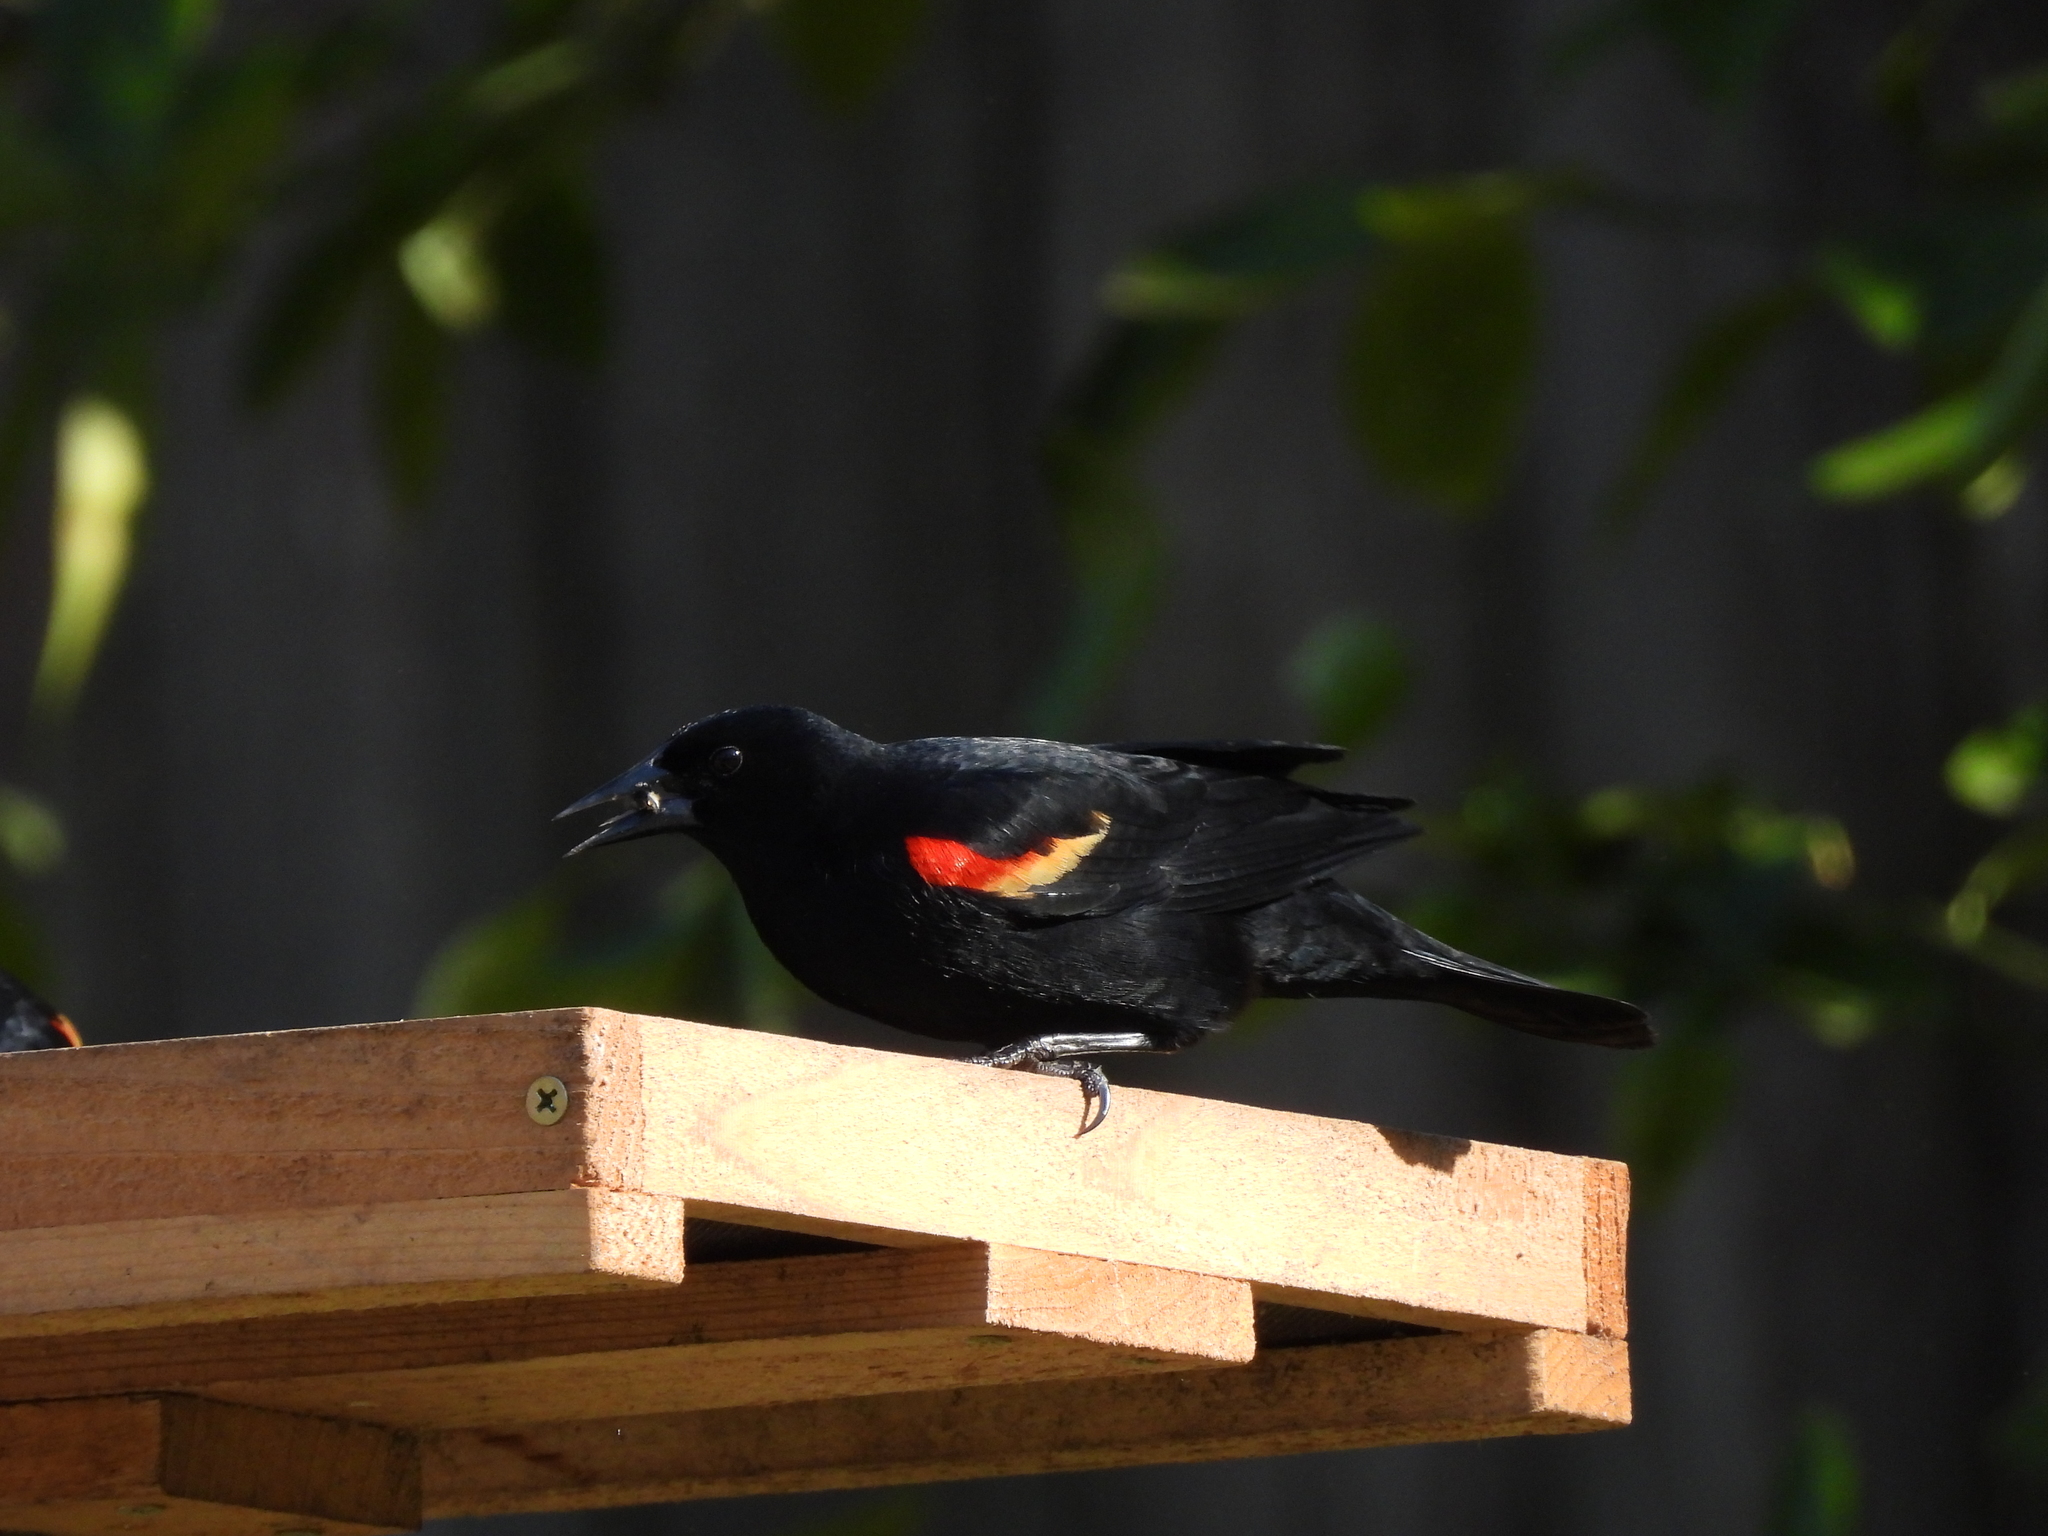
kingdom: Animalia
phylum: Chordata
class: Aves
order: Passeriformes
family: Icteridae
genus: Agelaius
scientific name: Agelaius phoeniceus
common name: Red-winged blackbird
